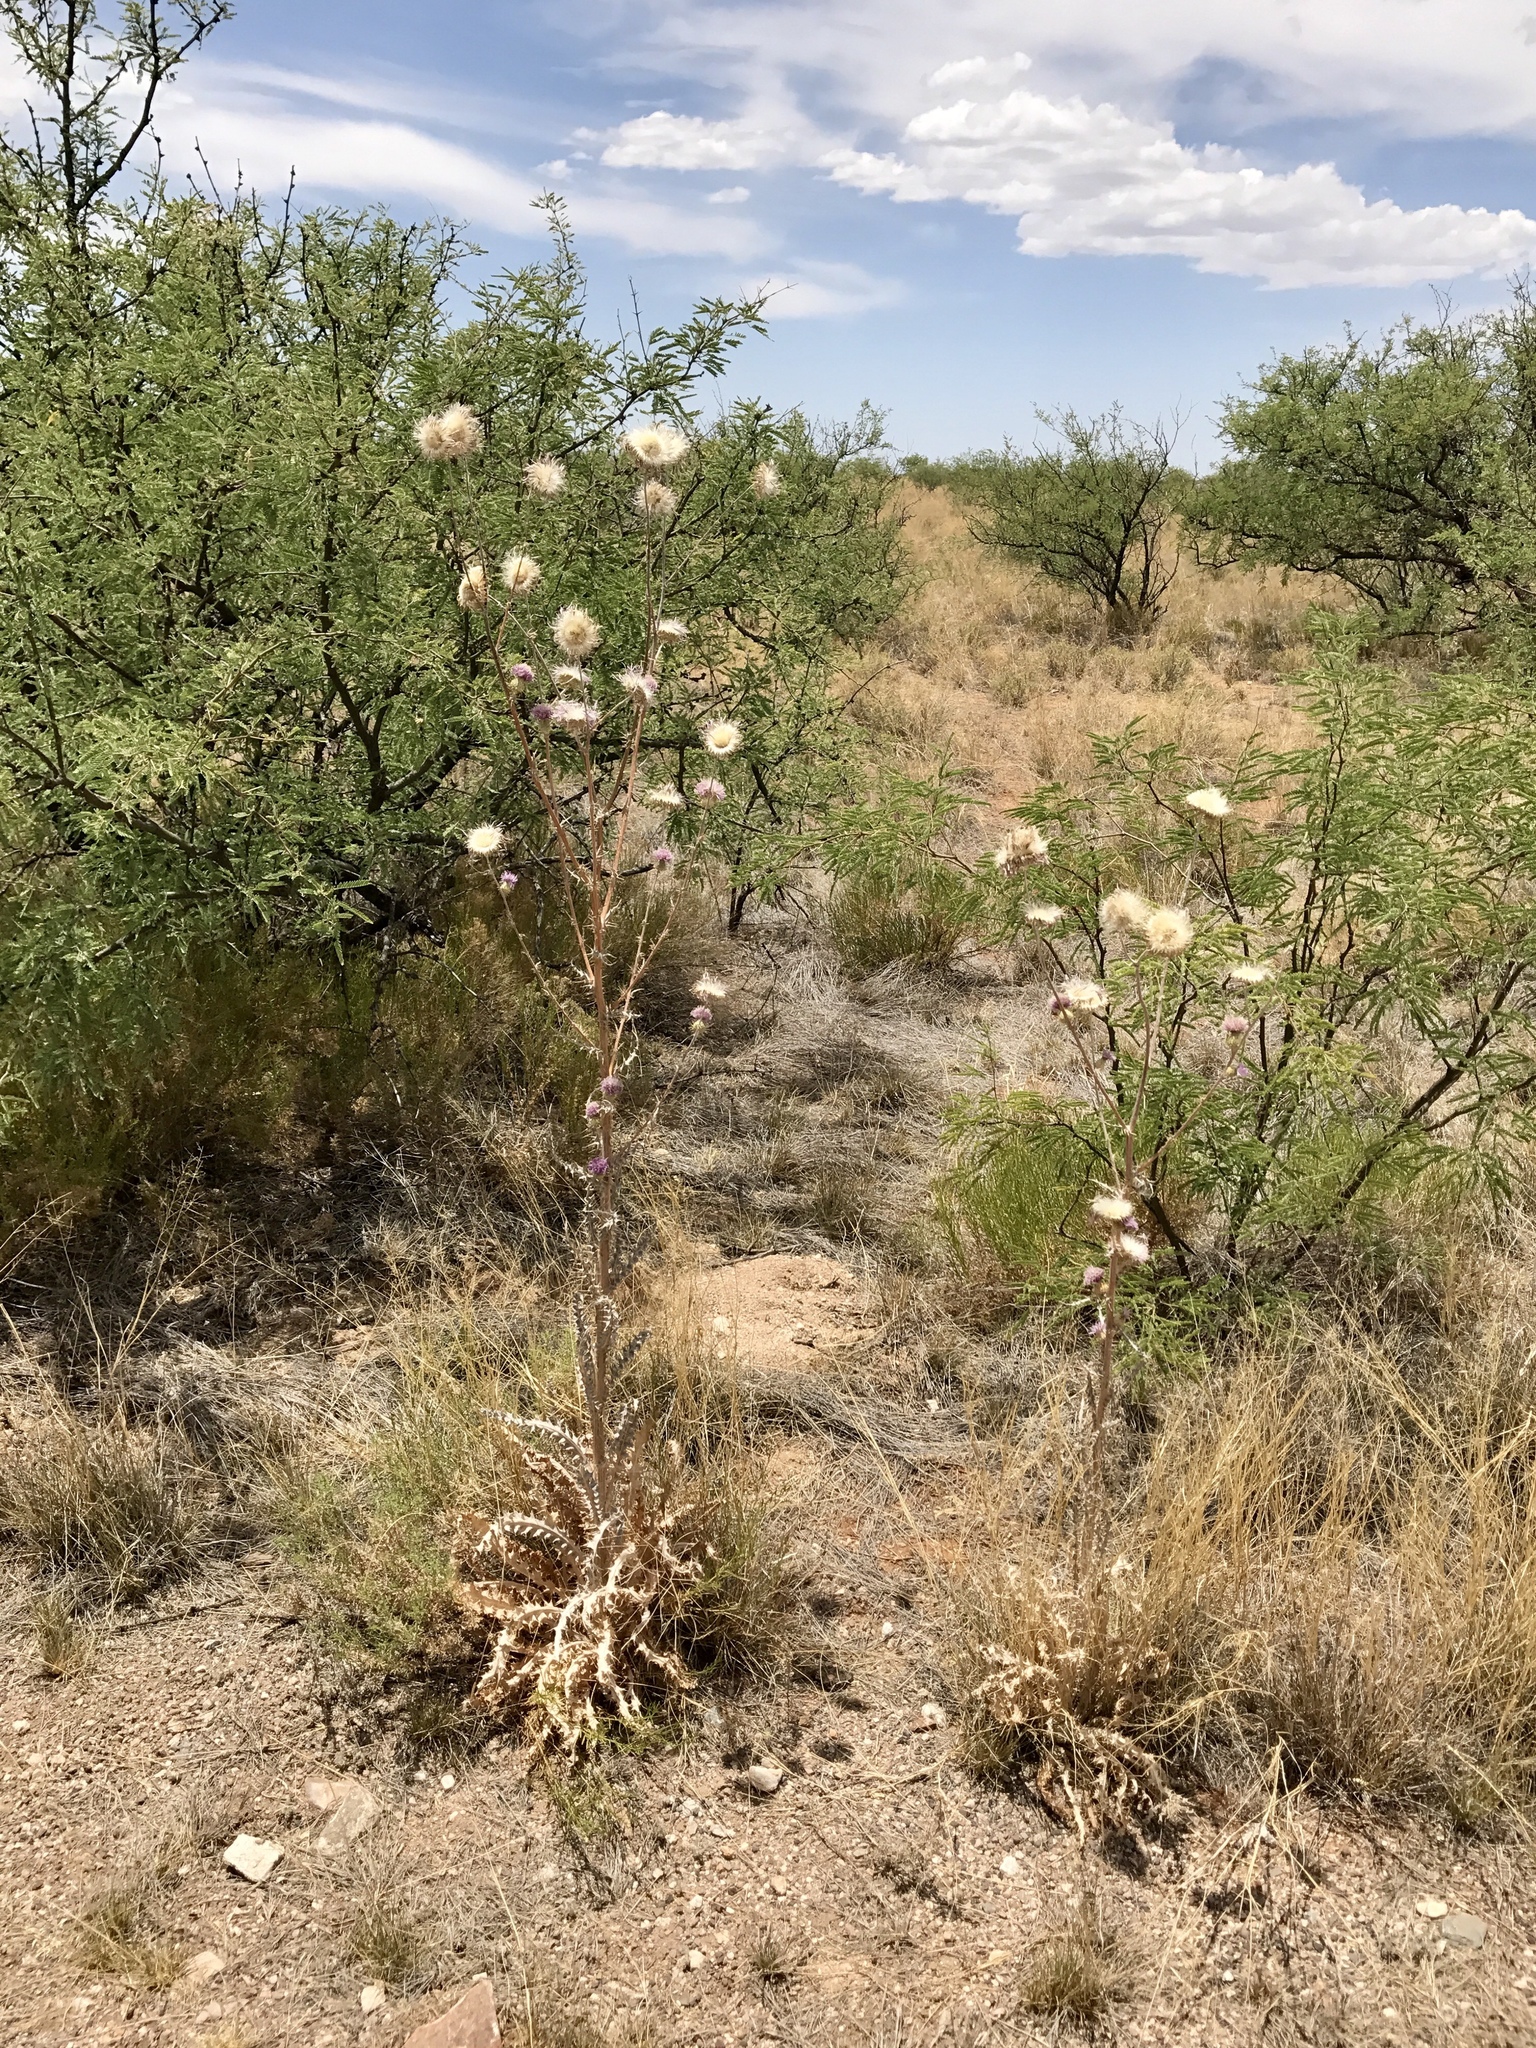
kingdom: Plantae
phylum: Tracheophyta
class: Magnoliopsida
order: Asterales
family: Asteraceae
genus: Cirsium
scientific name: Cirsium neomexicanum
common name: New mexico thistle
